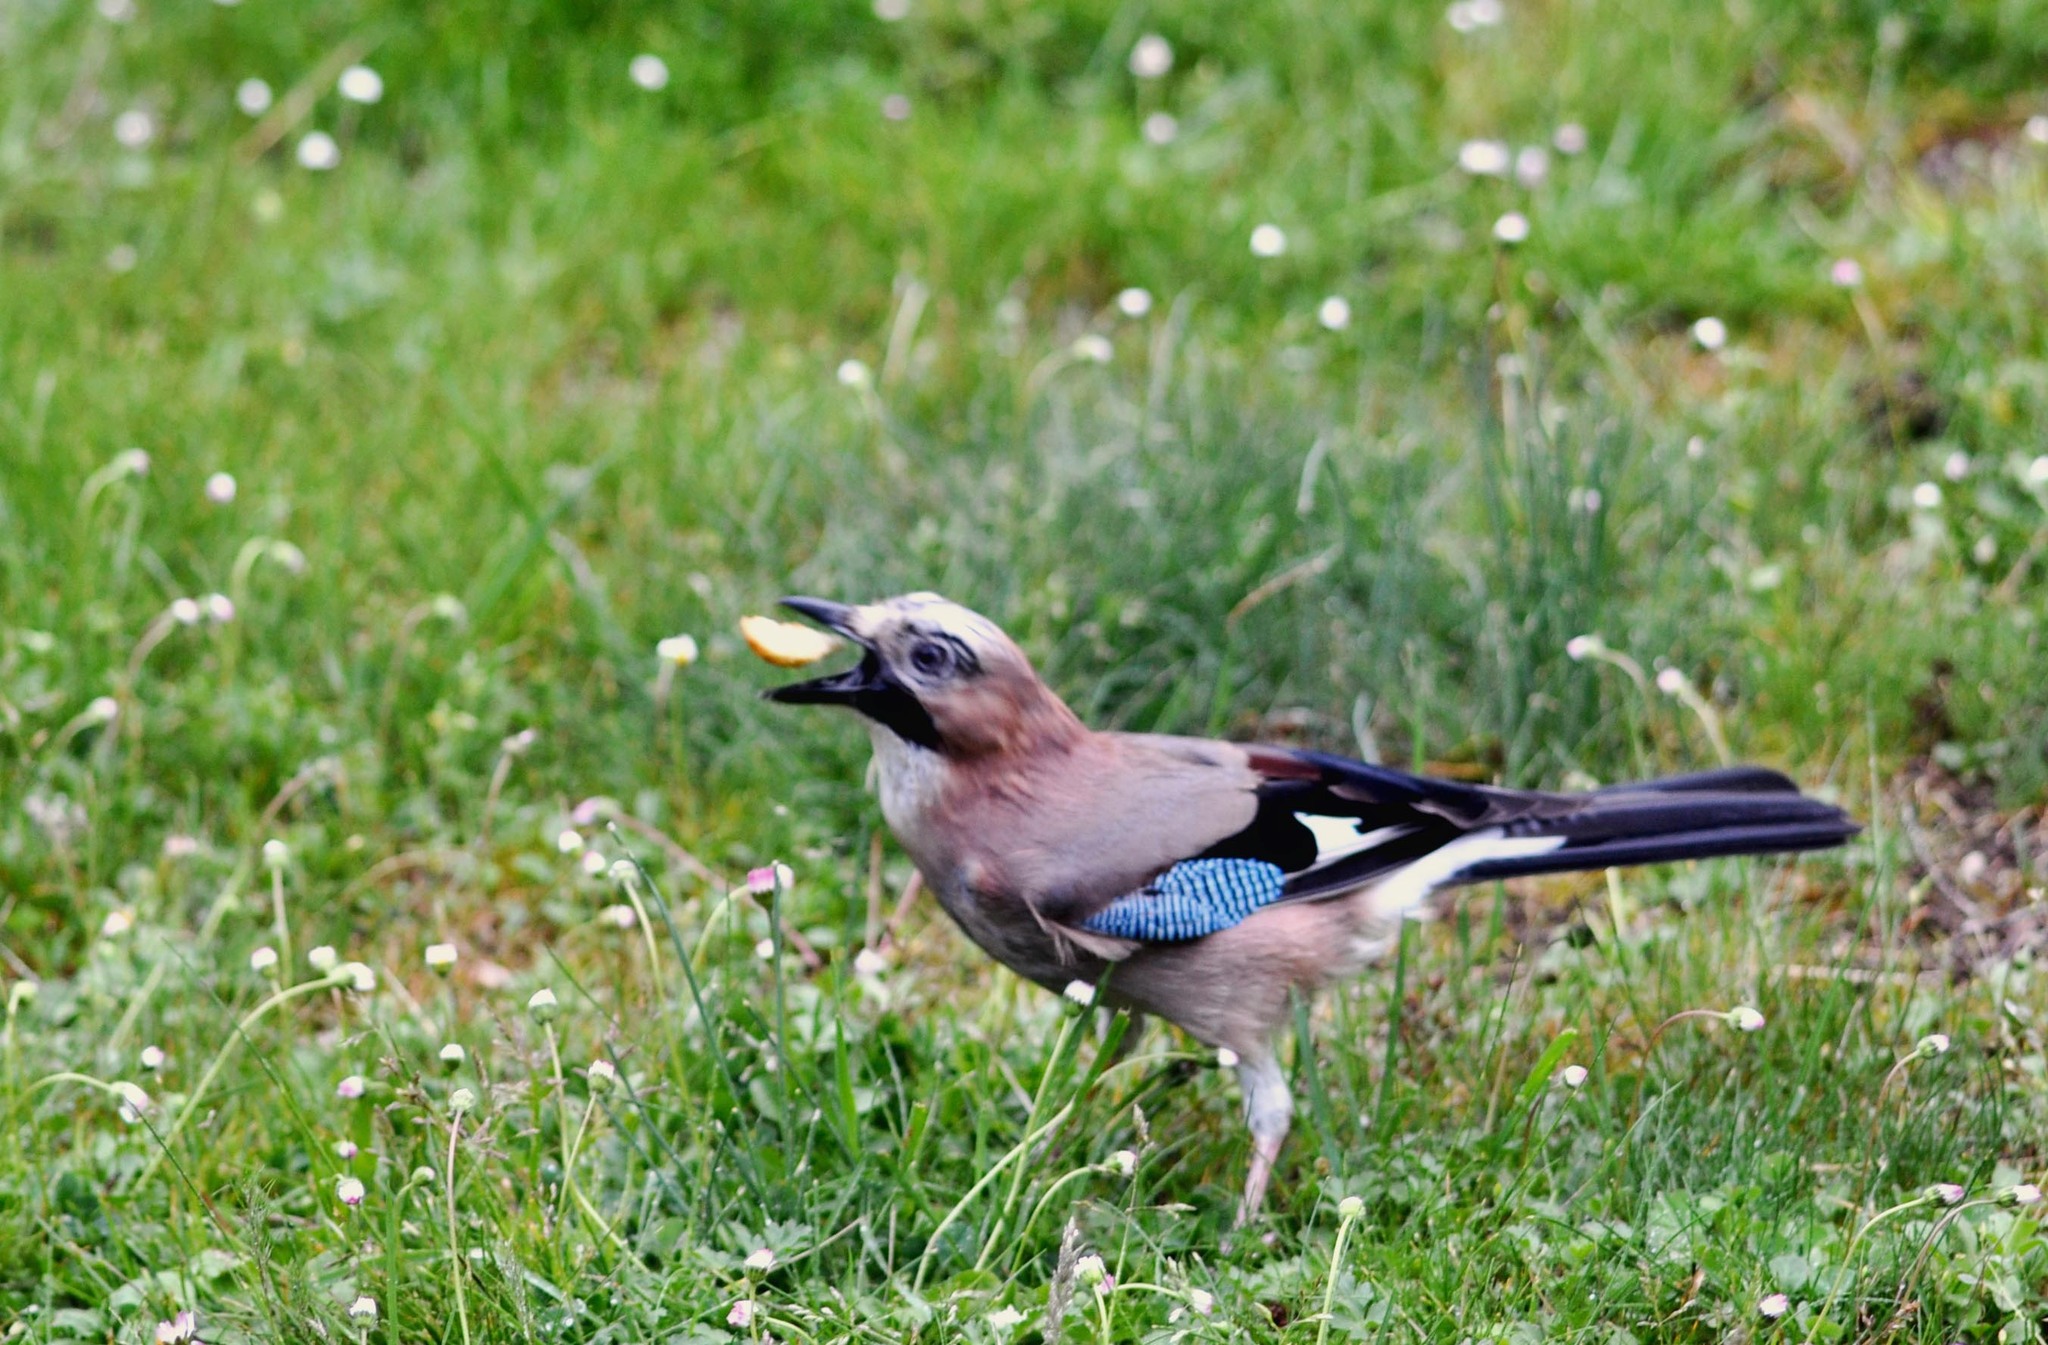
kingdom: Animalia
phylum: Chordata
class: Aves
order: Passeriformes
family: Corvidae
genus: Garrulus
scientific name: Garrulus glandarius
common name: Eurasian jay
